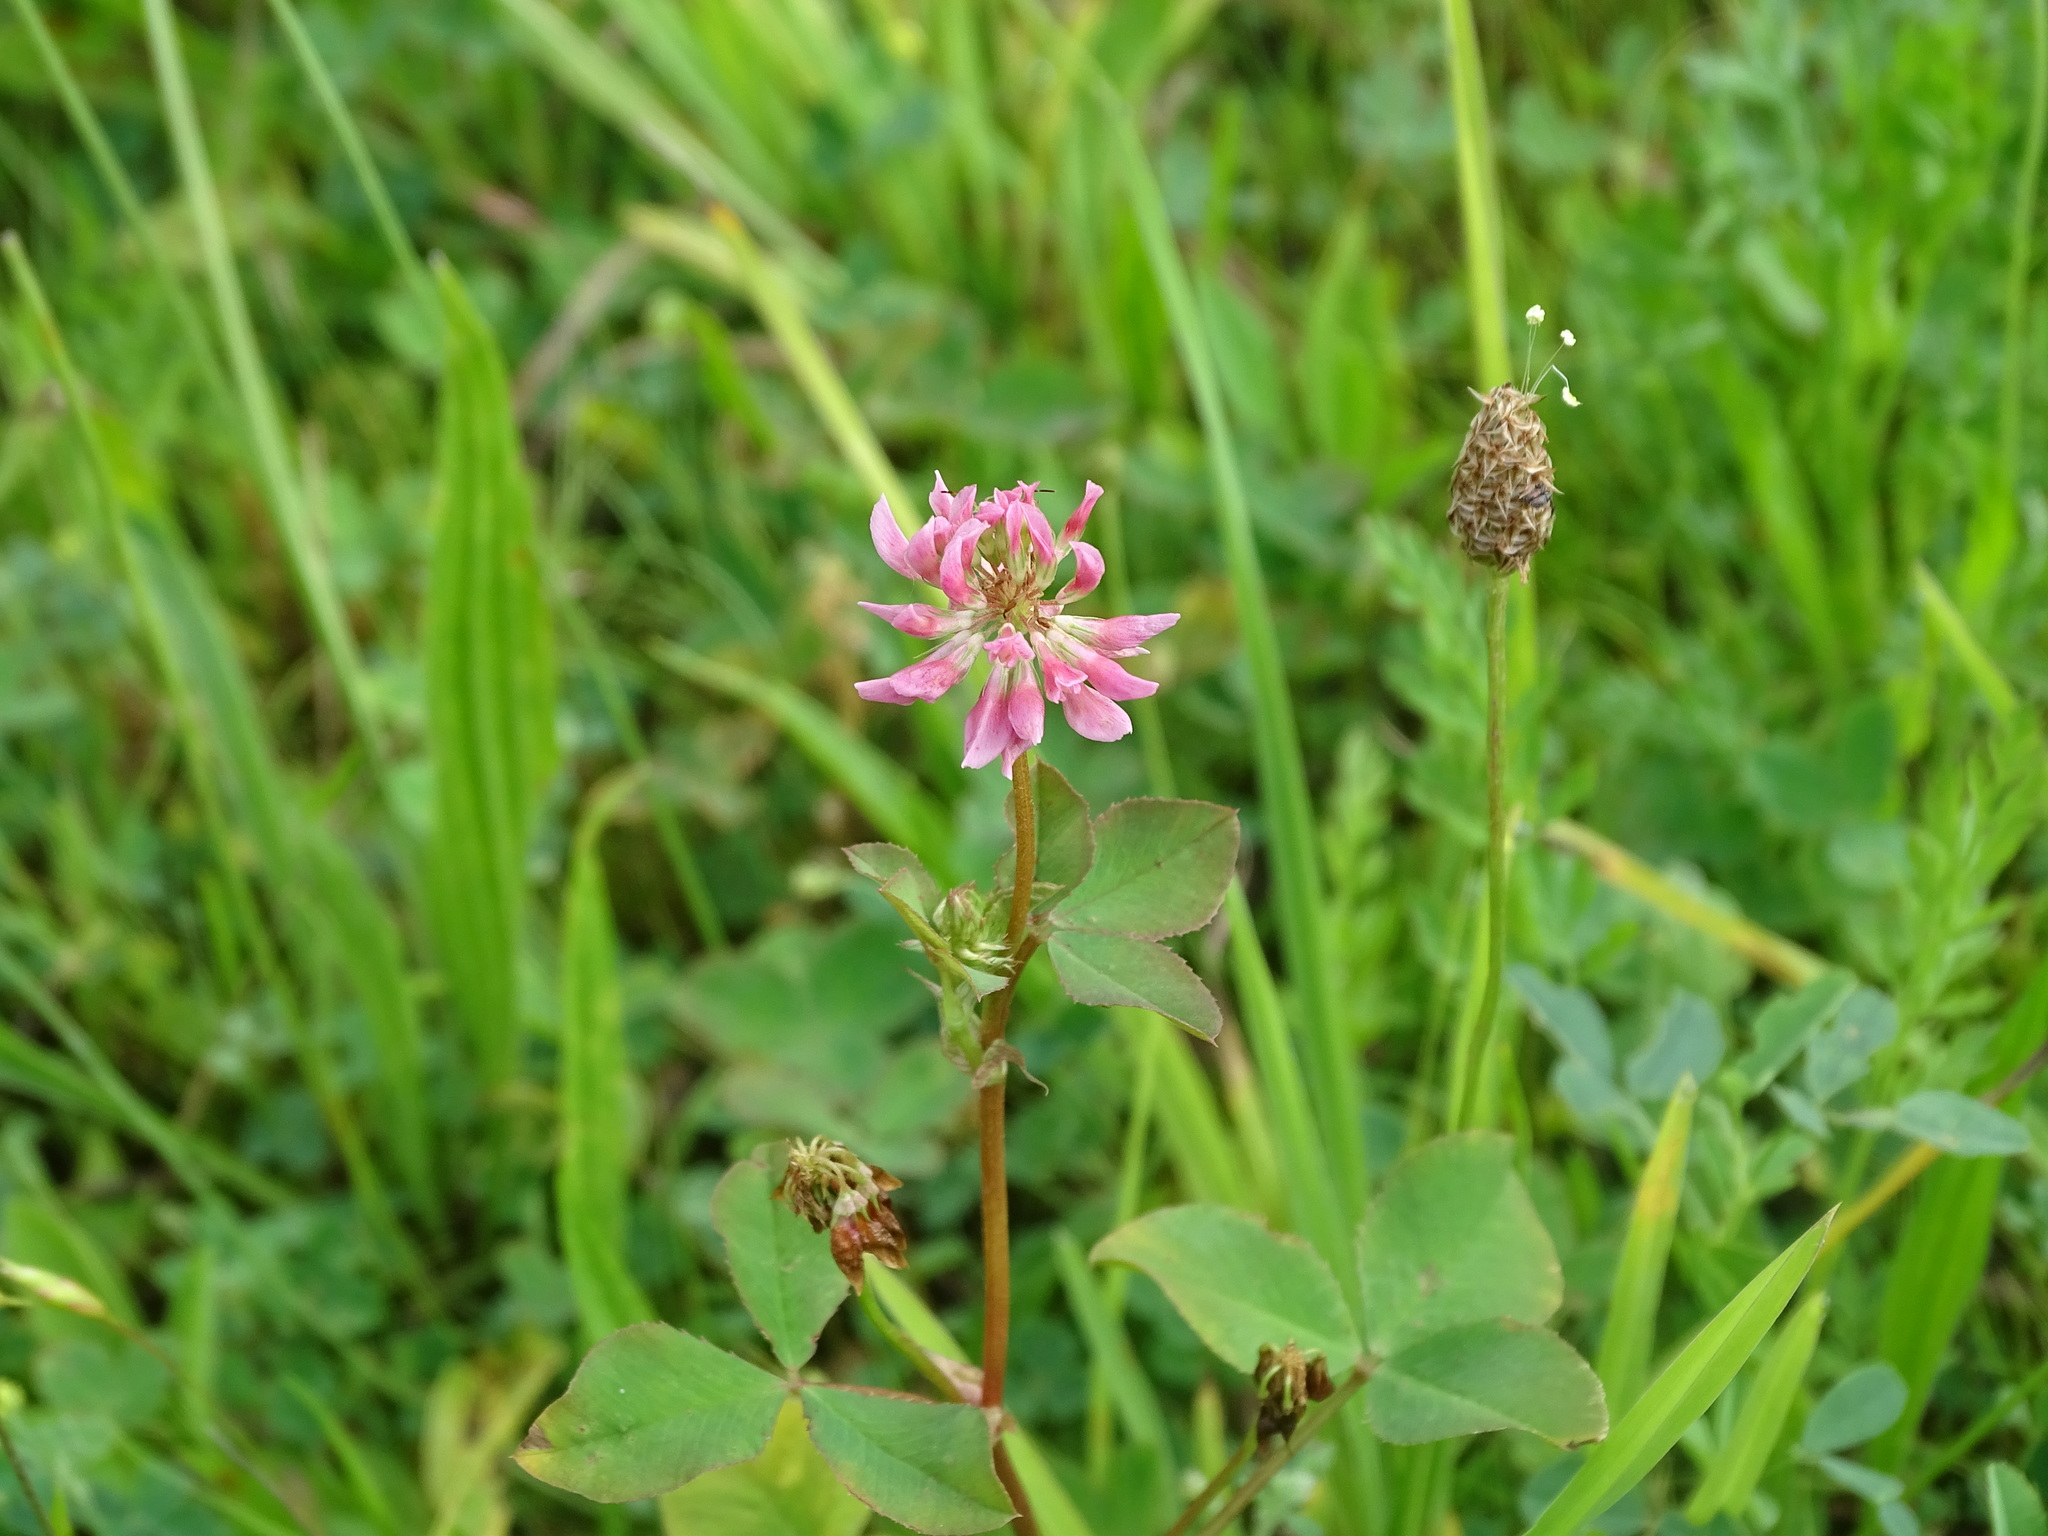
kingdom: Plantae
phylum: Tracheophyta
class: Magnoliopsida
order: Fabales
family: Fabaceae
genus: Trifolium
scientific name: Trifolium hybridum
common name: Alsike clover
